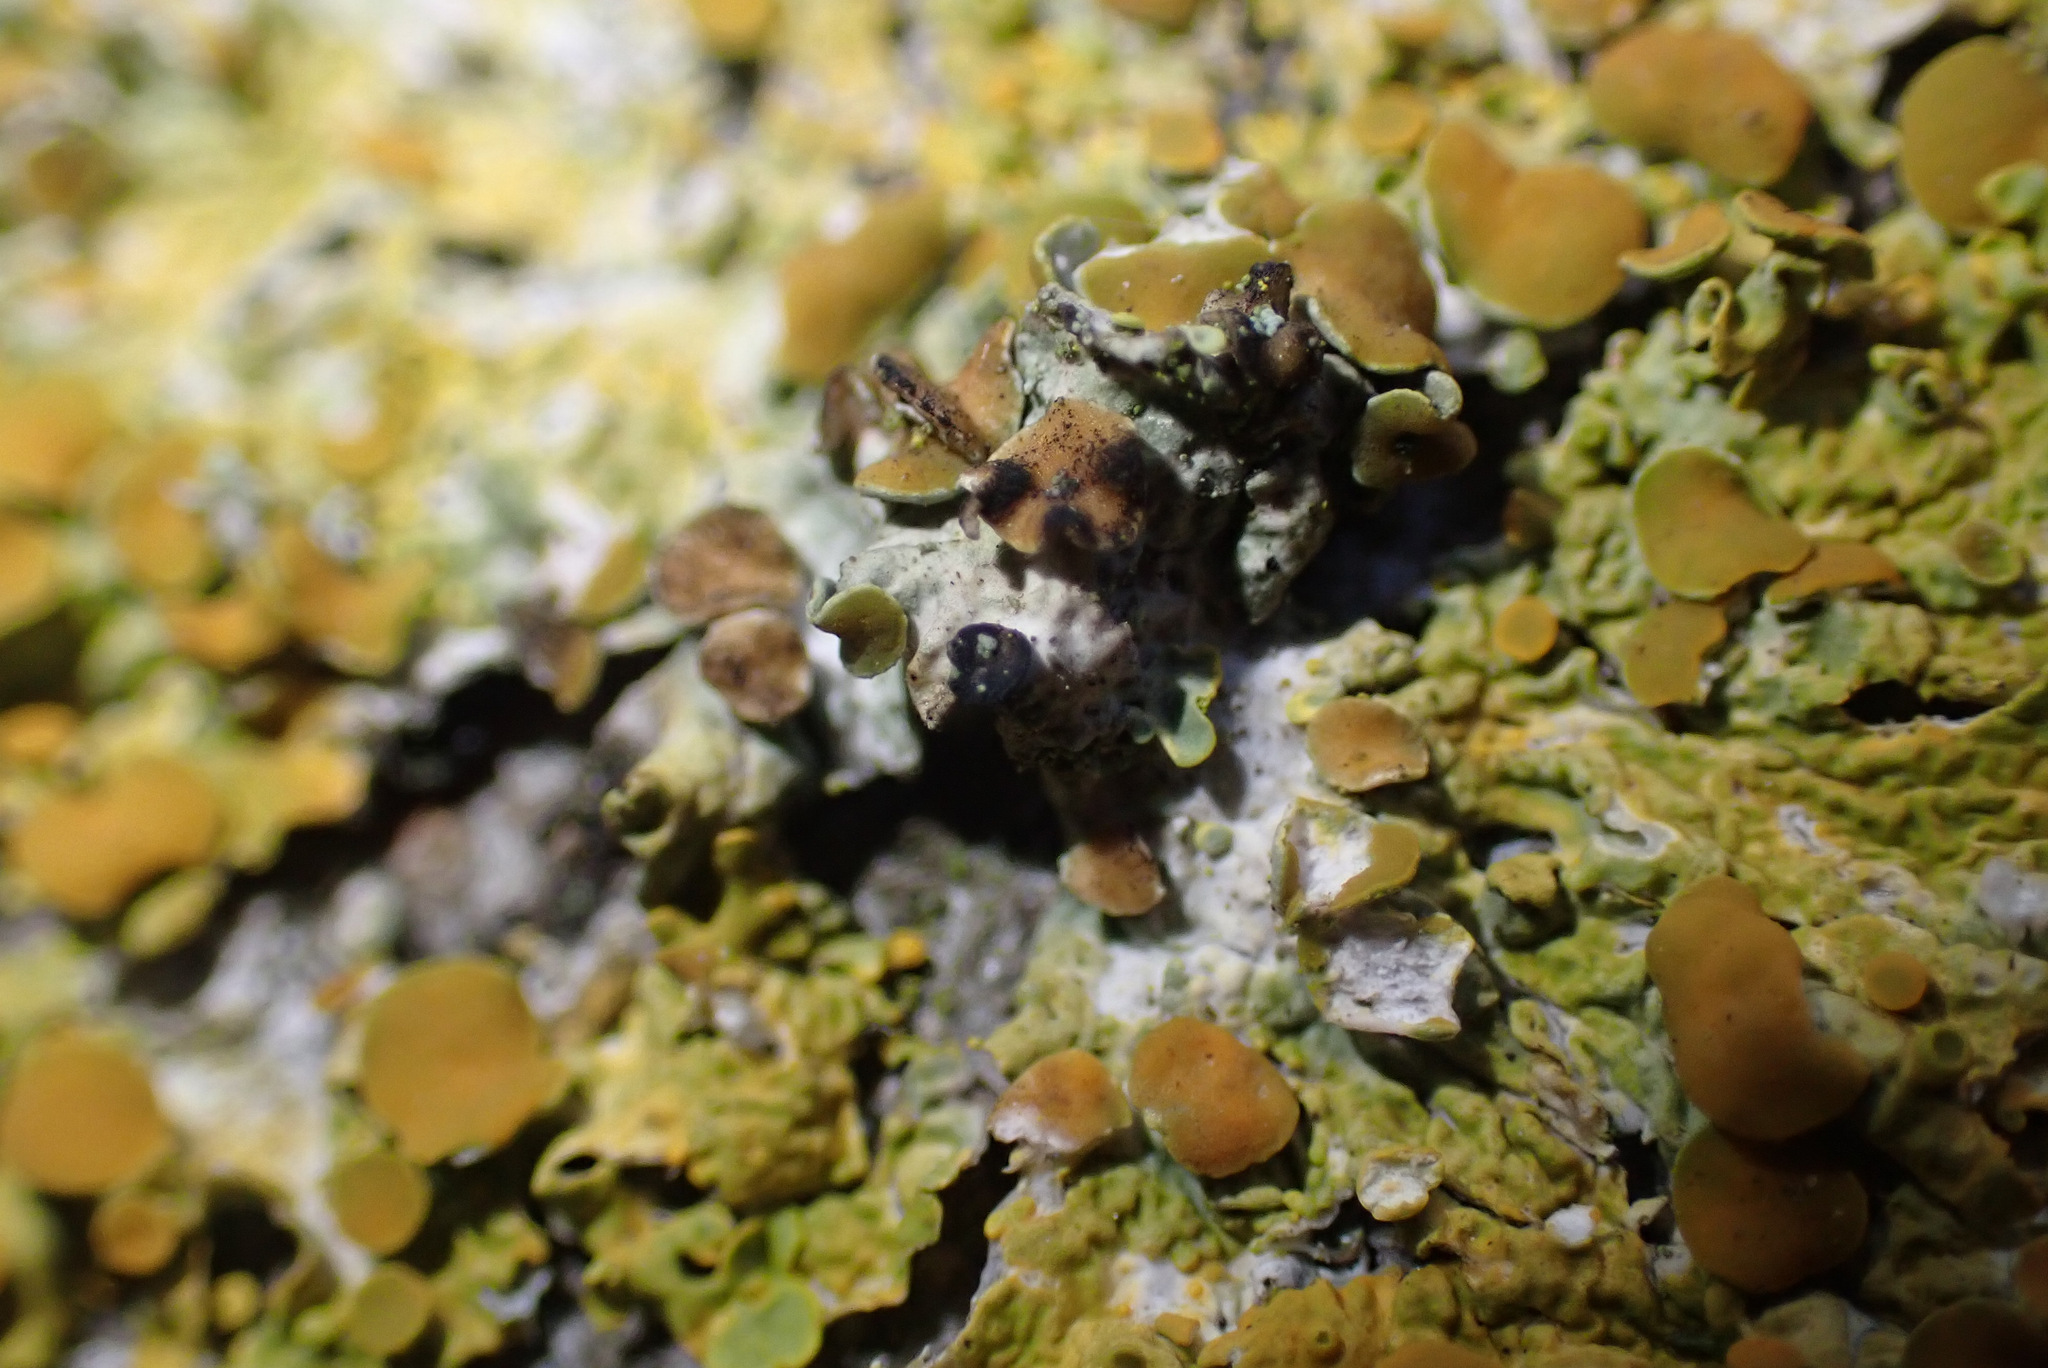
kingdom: Fungi
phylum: Ascomycota
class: Dothideomycetes
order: Mycosphaerellales
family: Teratosphaeriaceae
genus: Xanthoriicola
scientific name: Xanthoriicola physciae
